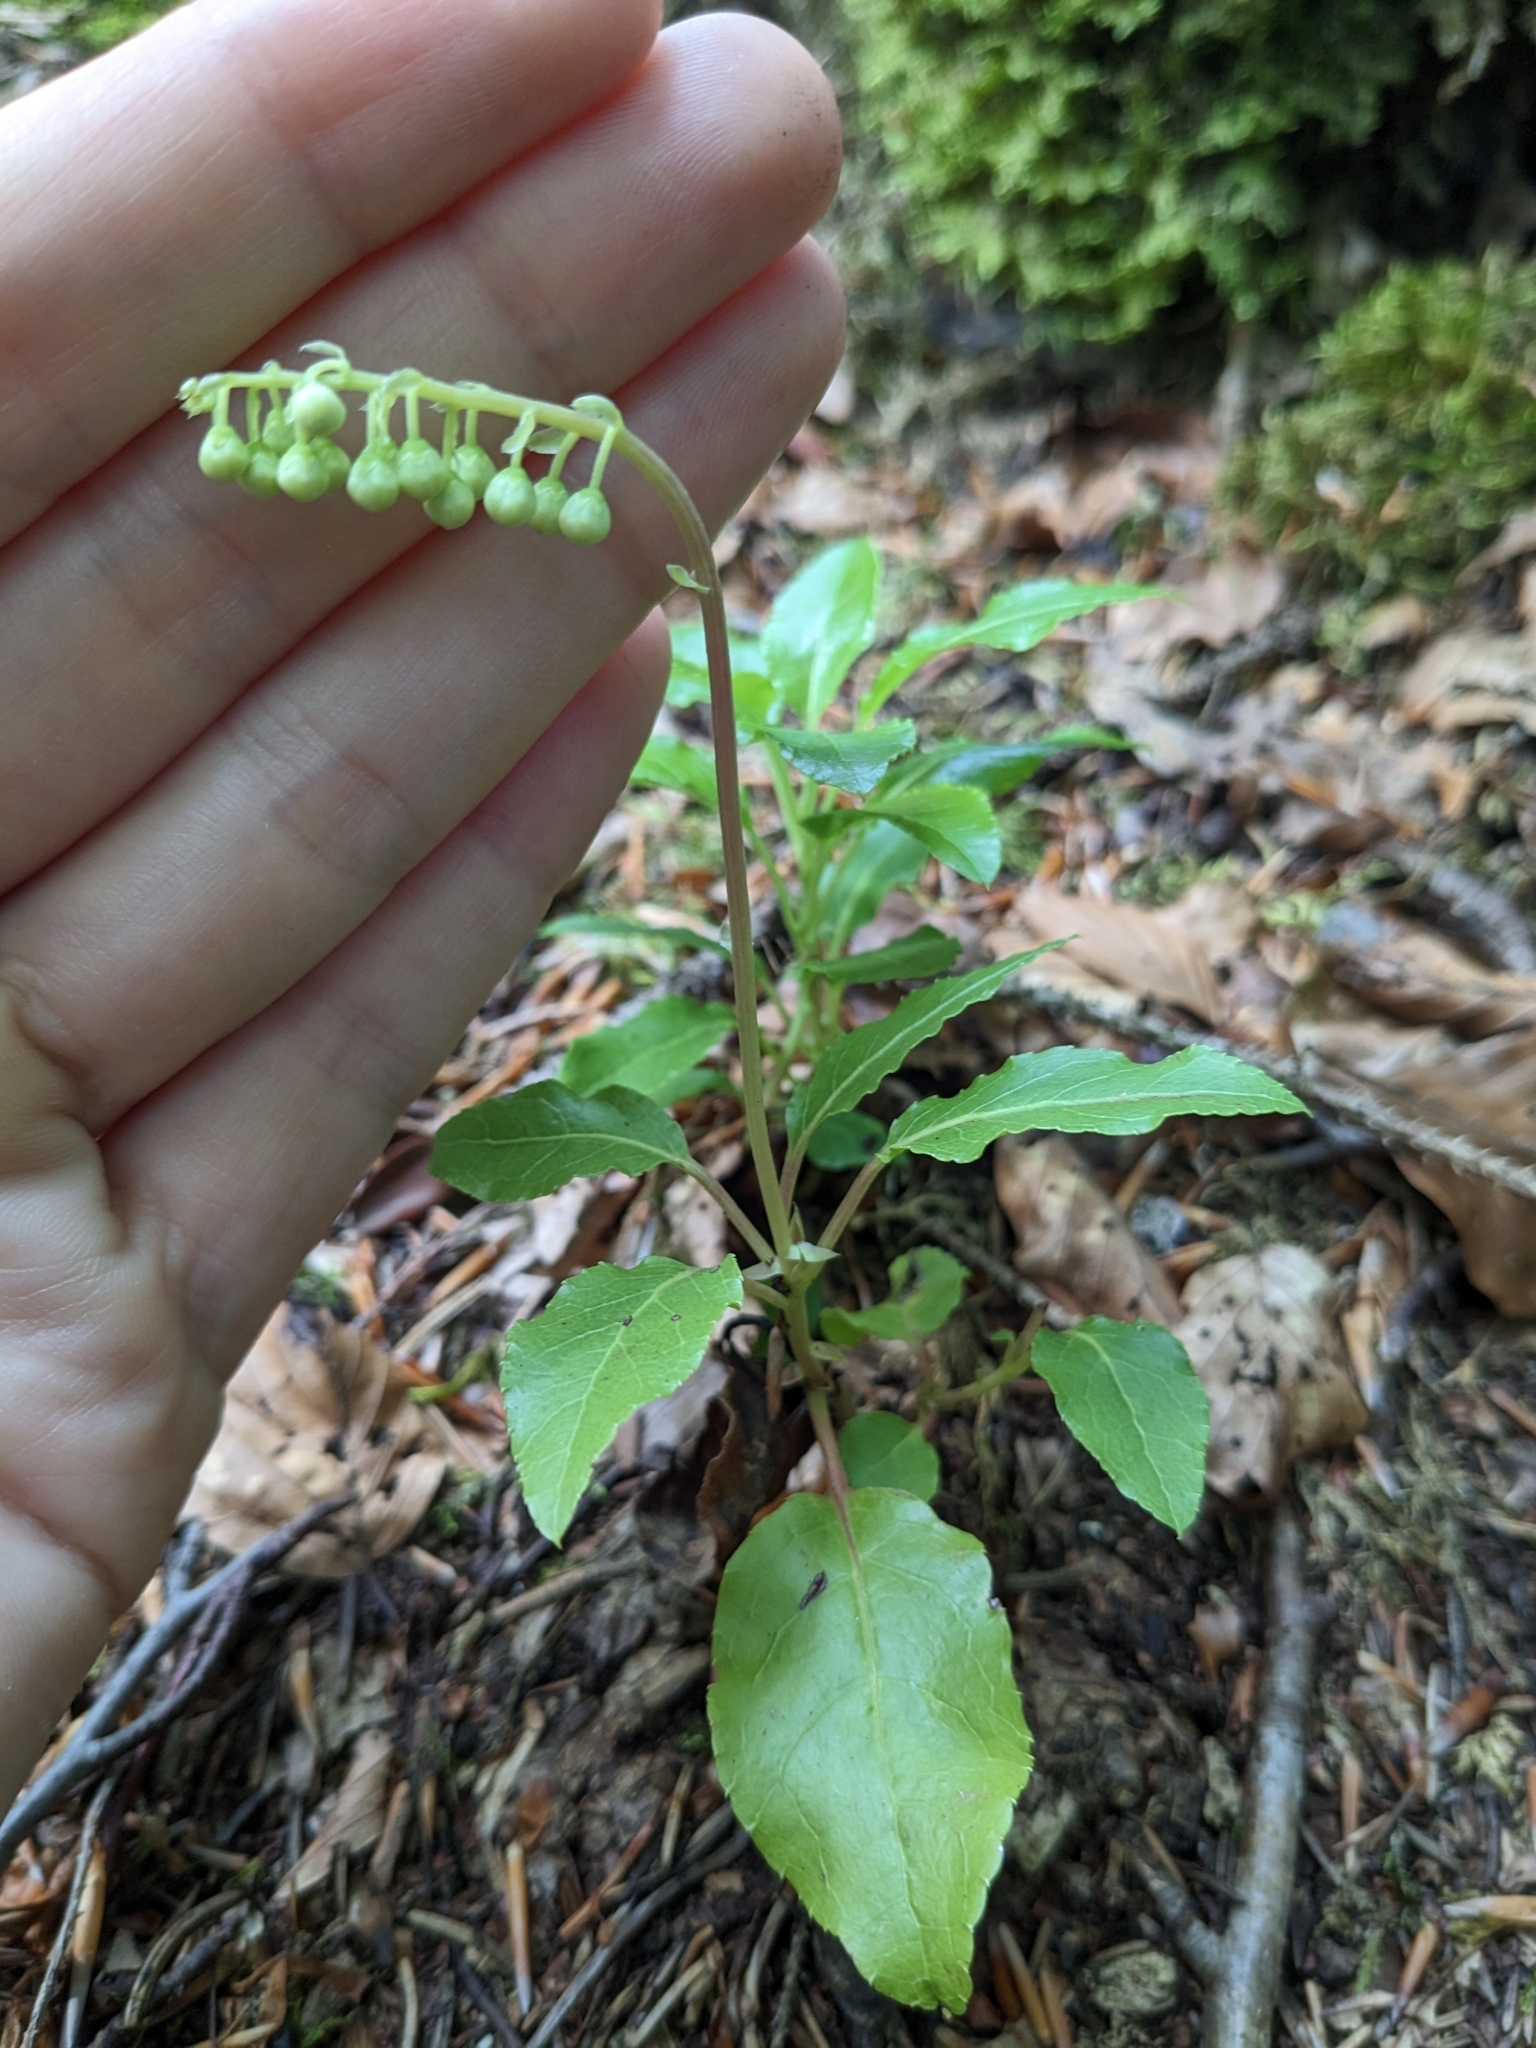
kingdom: Plantae
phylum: Tracheophyta
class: Magnoliopsida
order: Ericales
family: Ericaceae
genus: Orthilia
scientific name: Orthilia secunda
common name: One-sided orthilia
